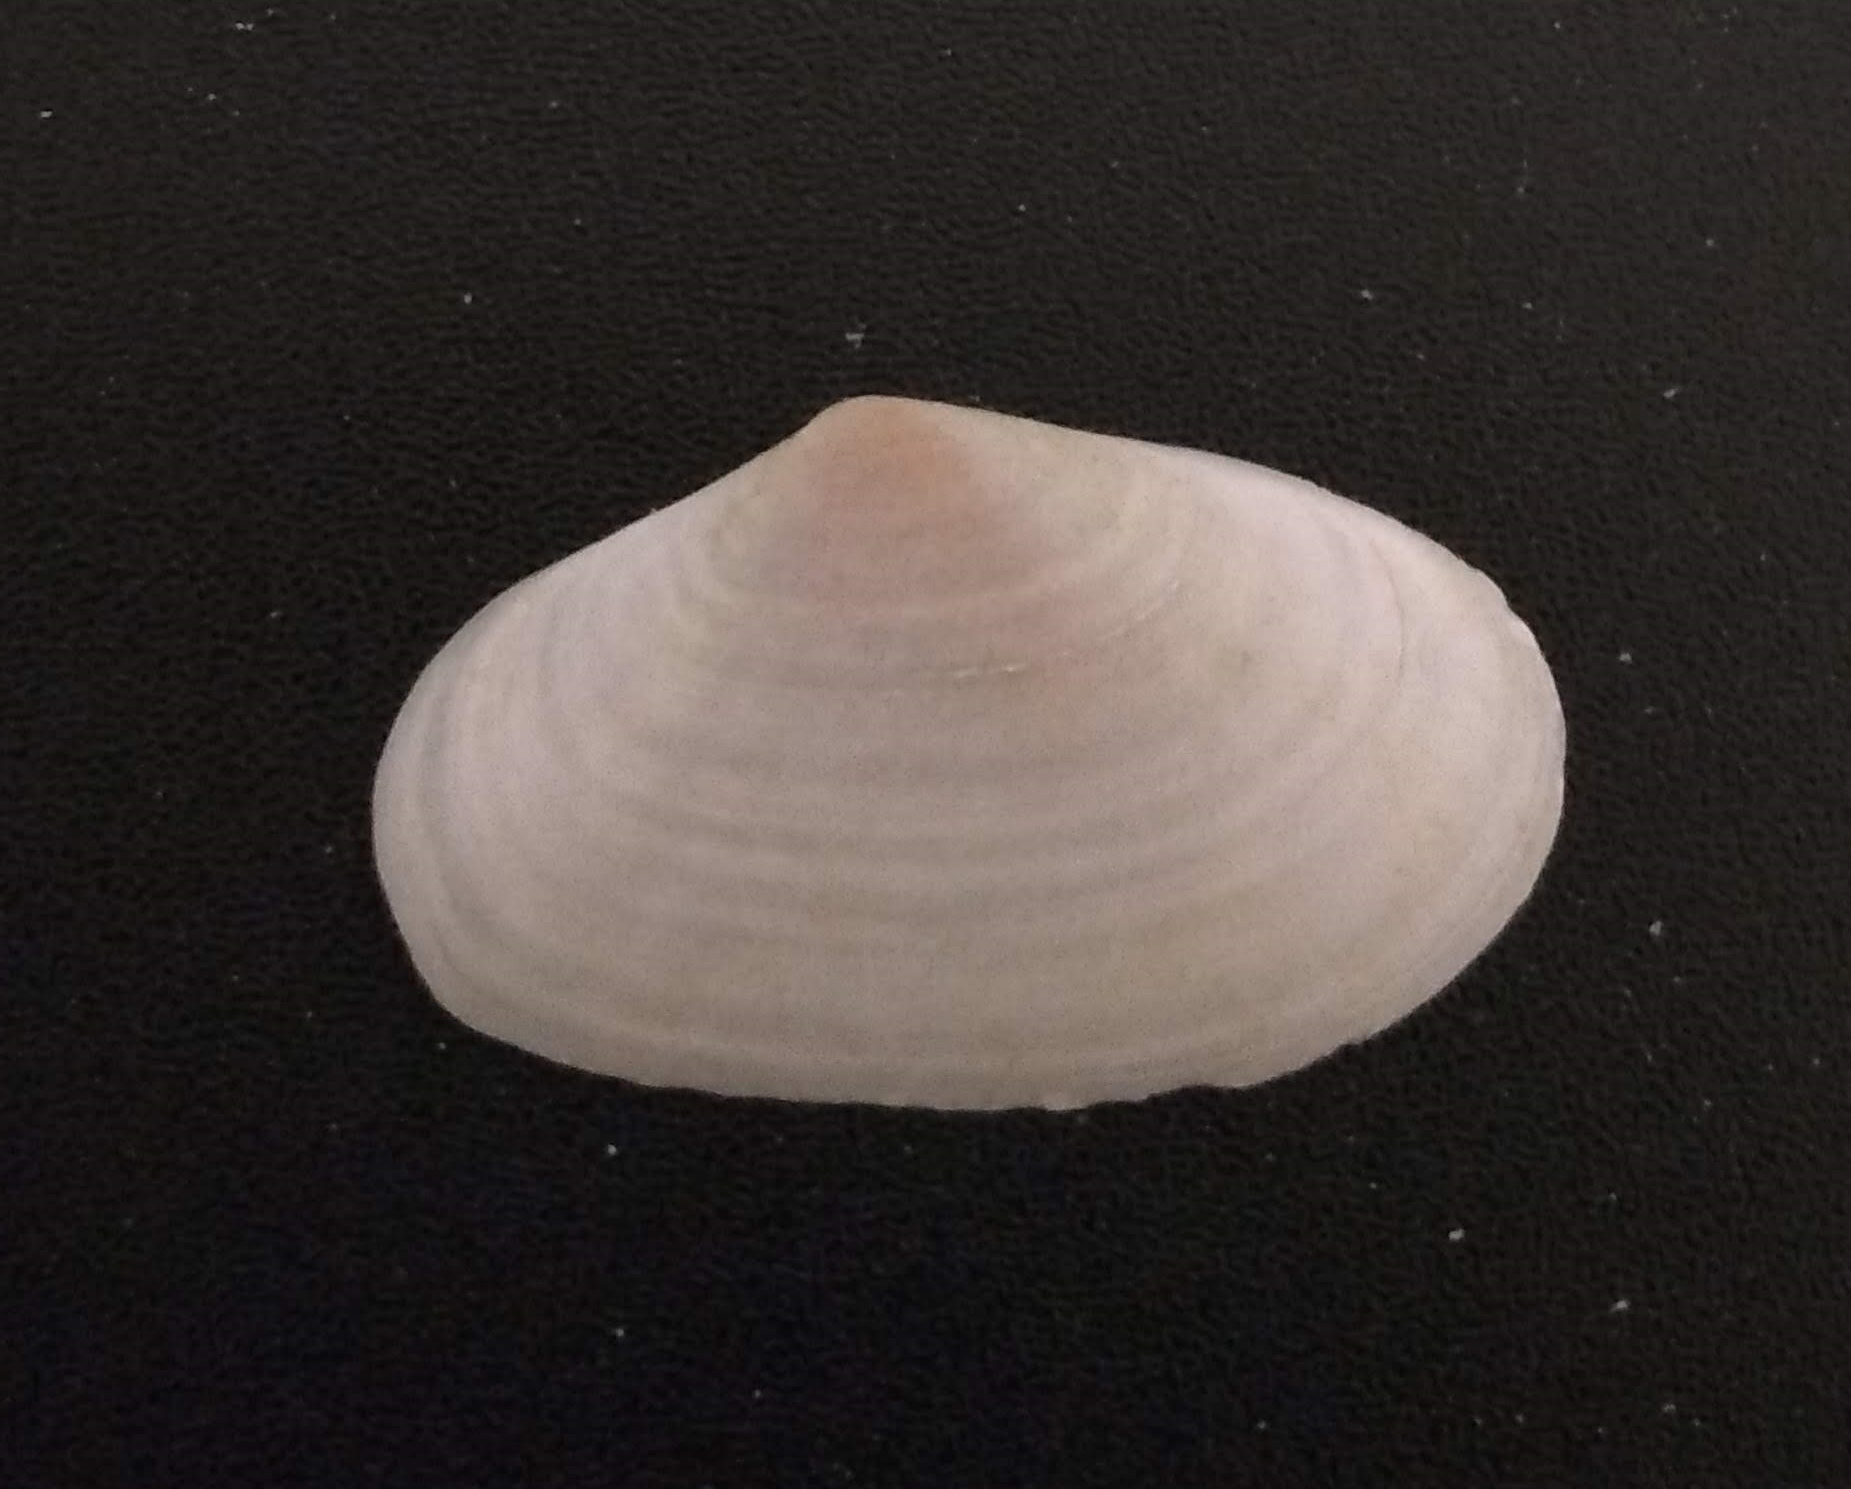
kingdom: Animalia
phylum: Mollusca
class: Bivalvia
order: Cardiida
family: Tellinidae
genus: Psammotreta
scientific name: Psammotreta brevifrons
